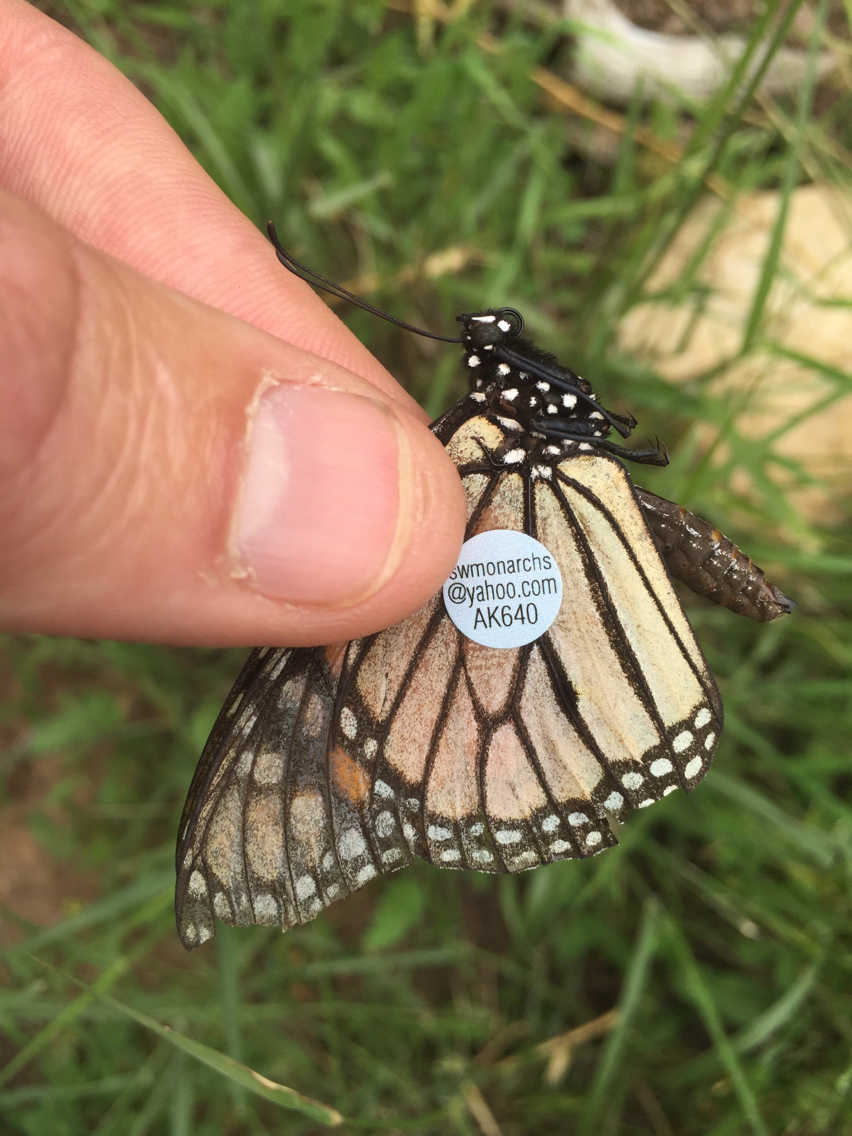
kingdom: Animalia
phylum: Arthropoda
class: Insecta
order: Lepidoptera
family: Nymphalidae
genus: Danaus
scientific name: Danaus plexippus
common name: Monarch
